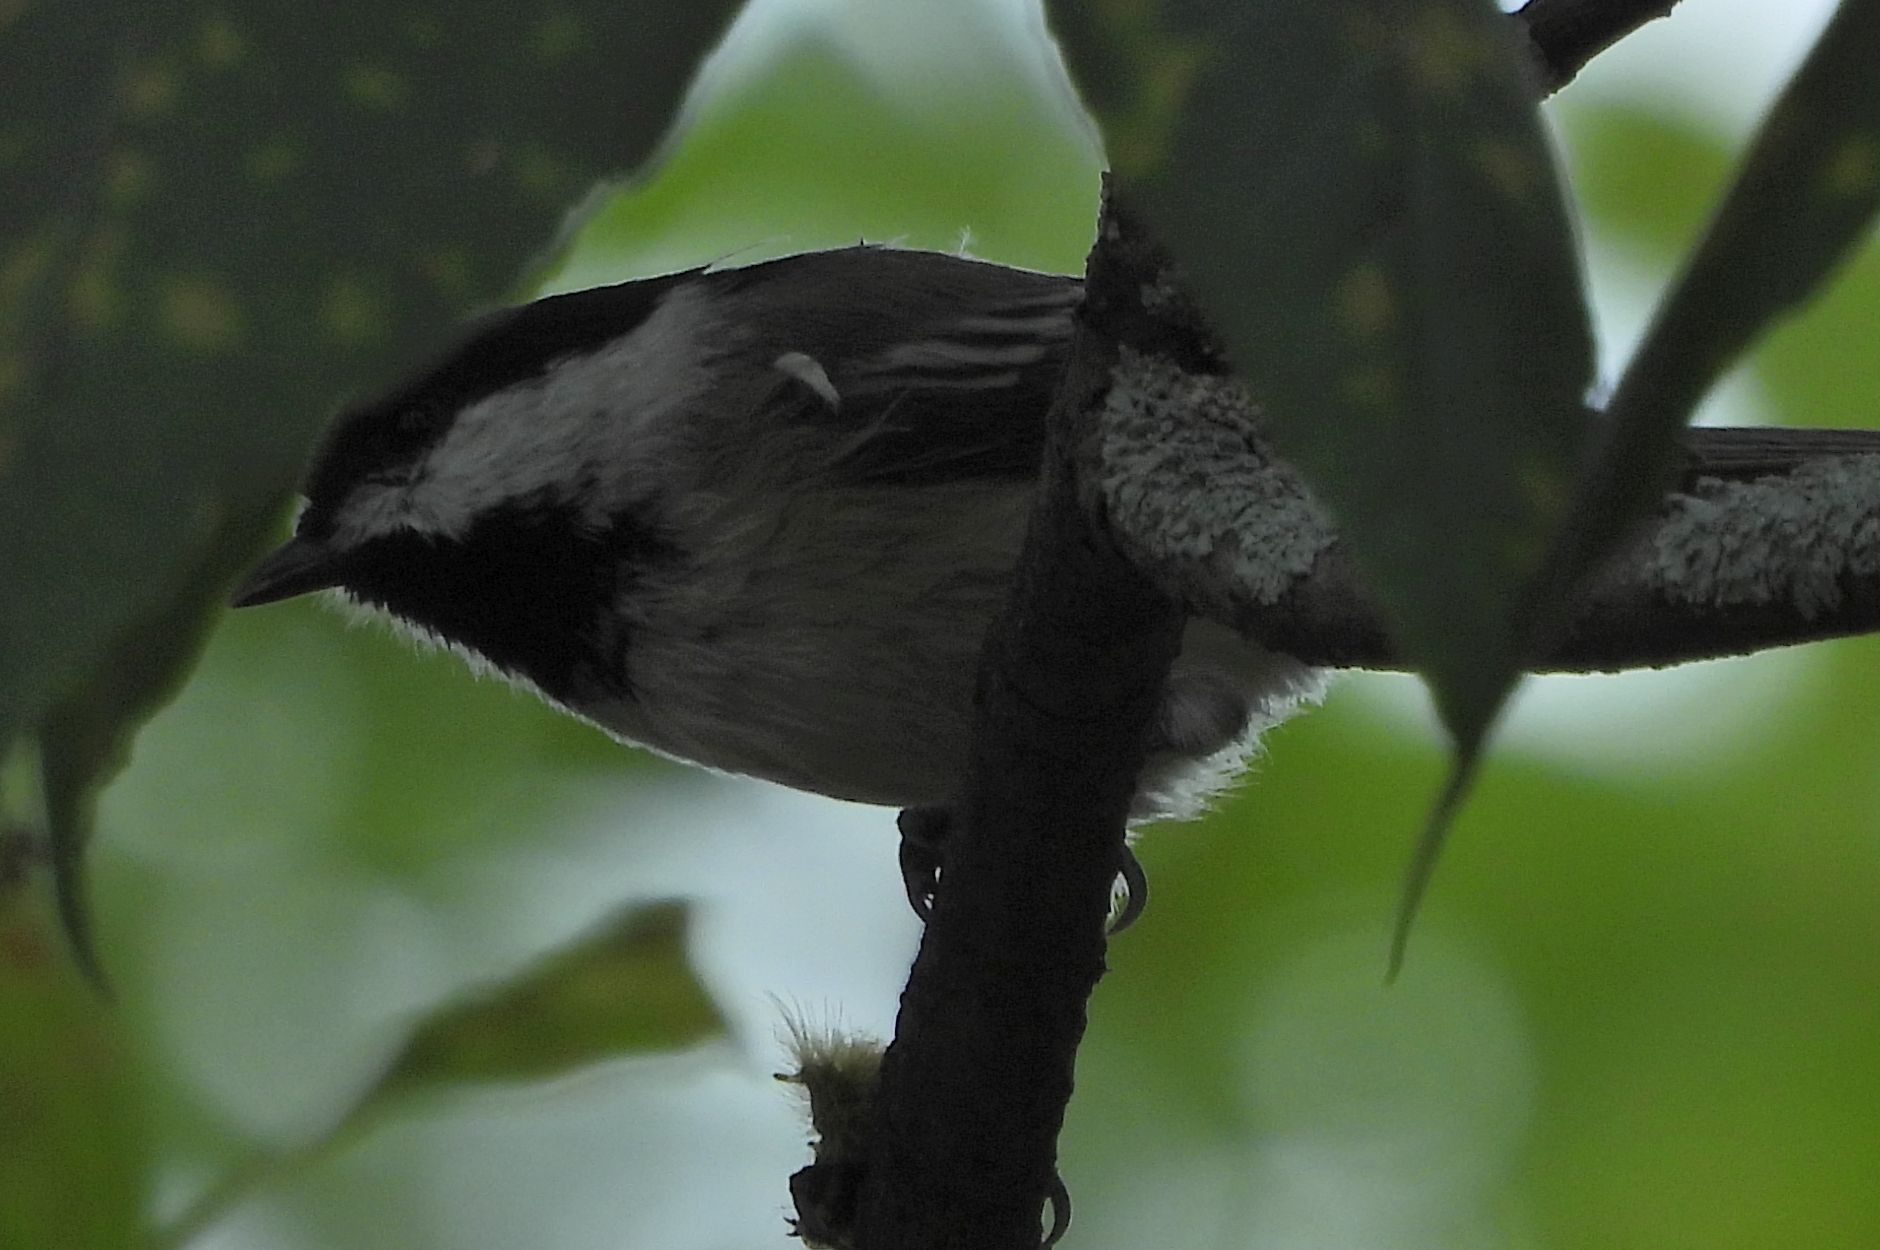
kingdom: Animalia
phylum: Chordata
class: Aves
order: Passeriformes
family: Paridae
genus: Poecile
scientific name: Poecile atricapillus
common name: Black-capped chickadee
